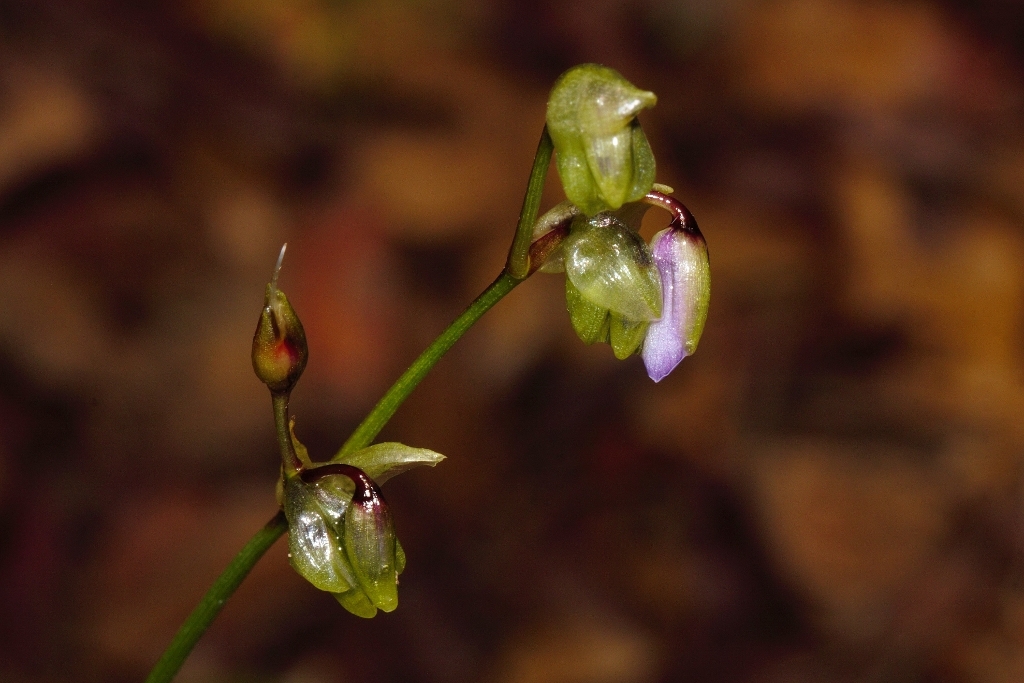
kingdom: Plantae
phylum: Tracheophyta
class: Liliopsida
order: Commelinales
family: Commelinaceae
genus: Murdannia
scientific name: Murdannia simplex
